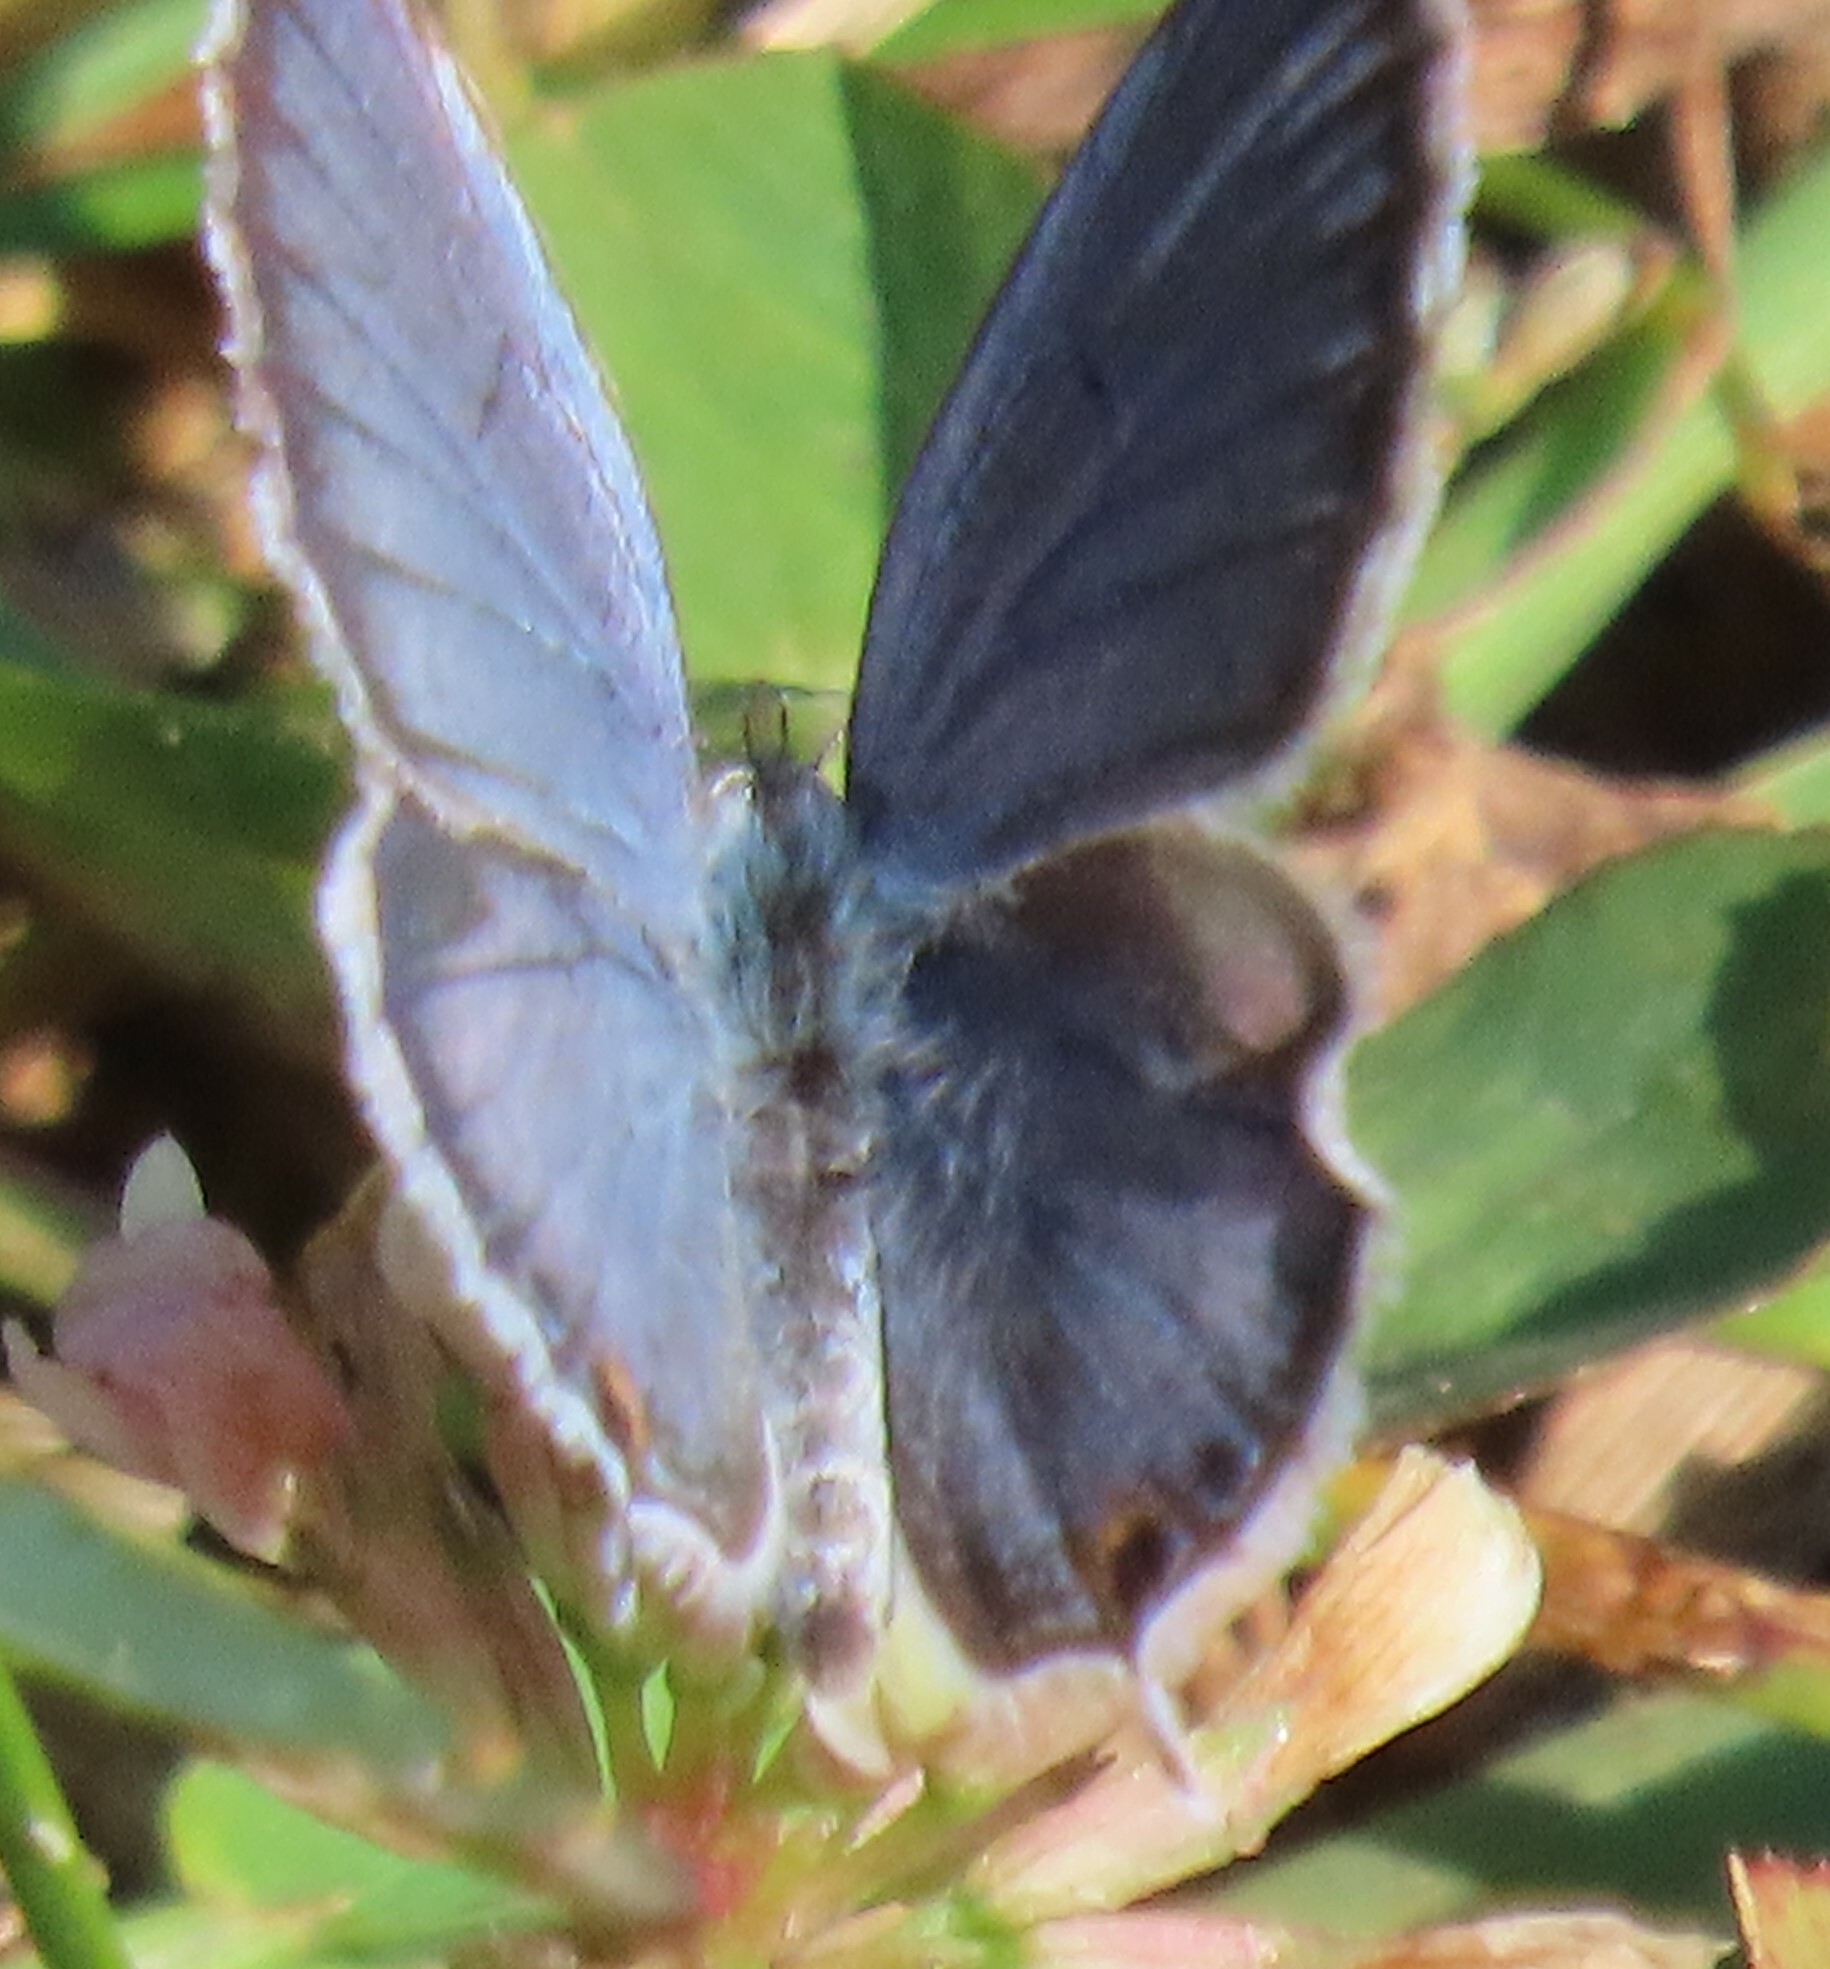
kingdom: Animalia
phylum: Arthropoda
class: Insecta
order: Lepidoptera
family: Lycaenidae
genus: Elkalyce
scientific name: Elkalyce comyntas
